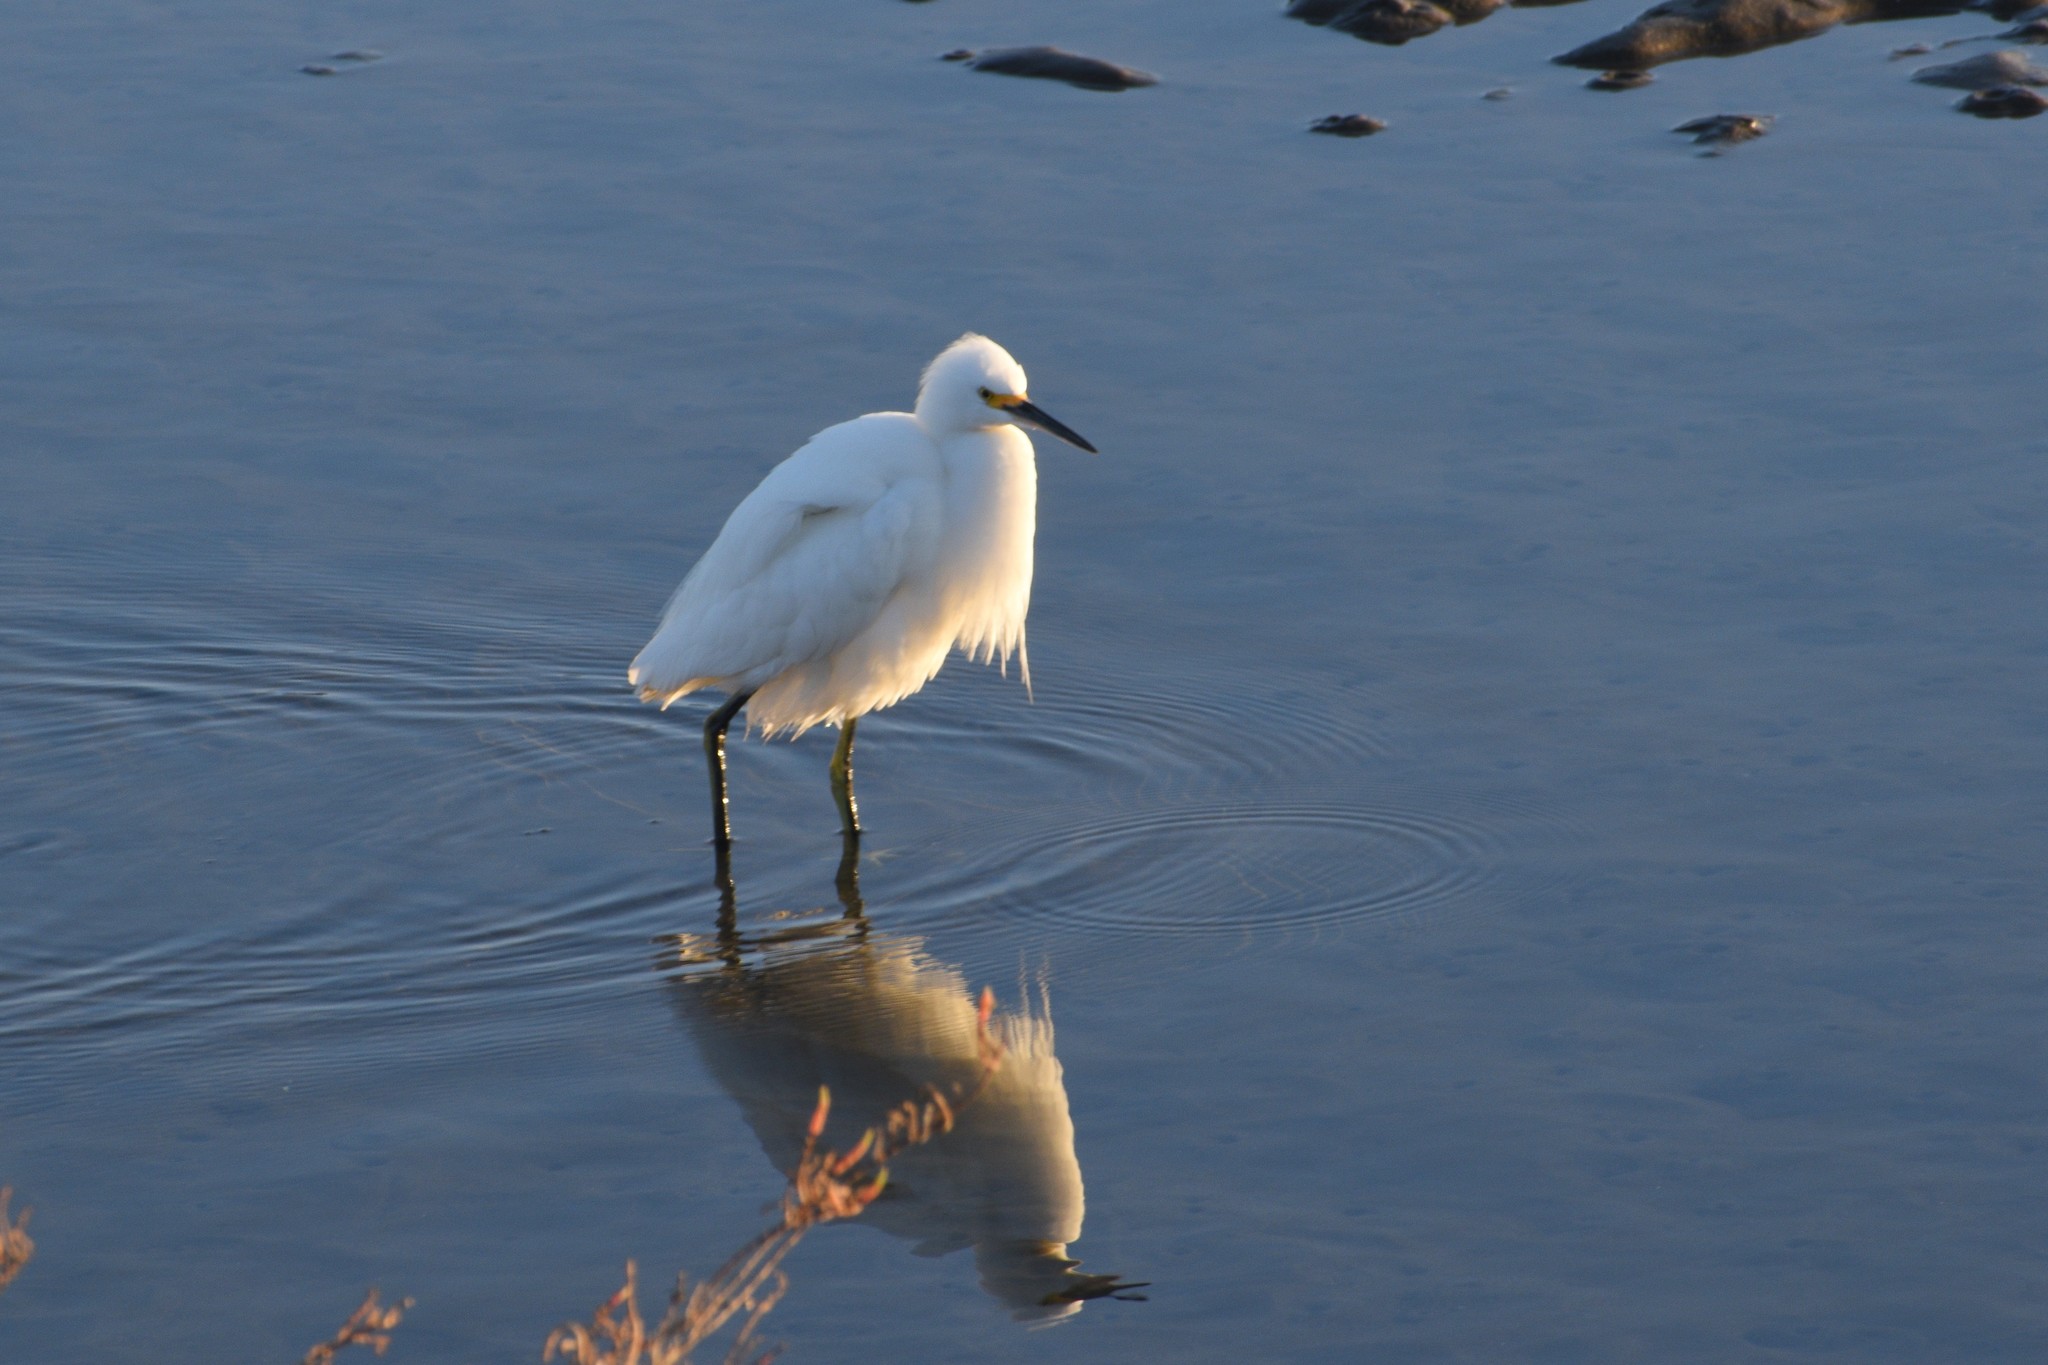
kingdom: Animalia
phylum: Chordata
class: Aves
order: Pelecaniformes
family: Ardeidae
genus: Egretta
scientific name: Egretta thula
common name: Snowy egret
